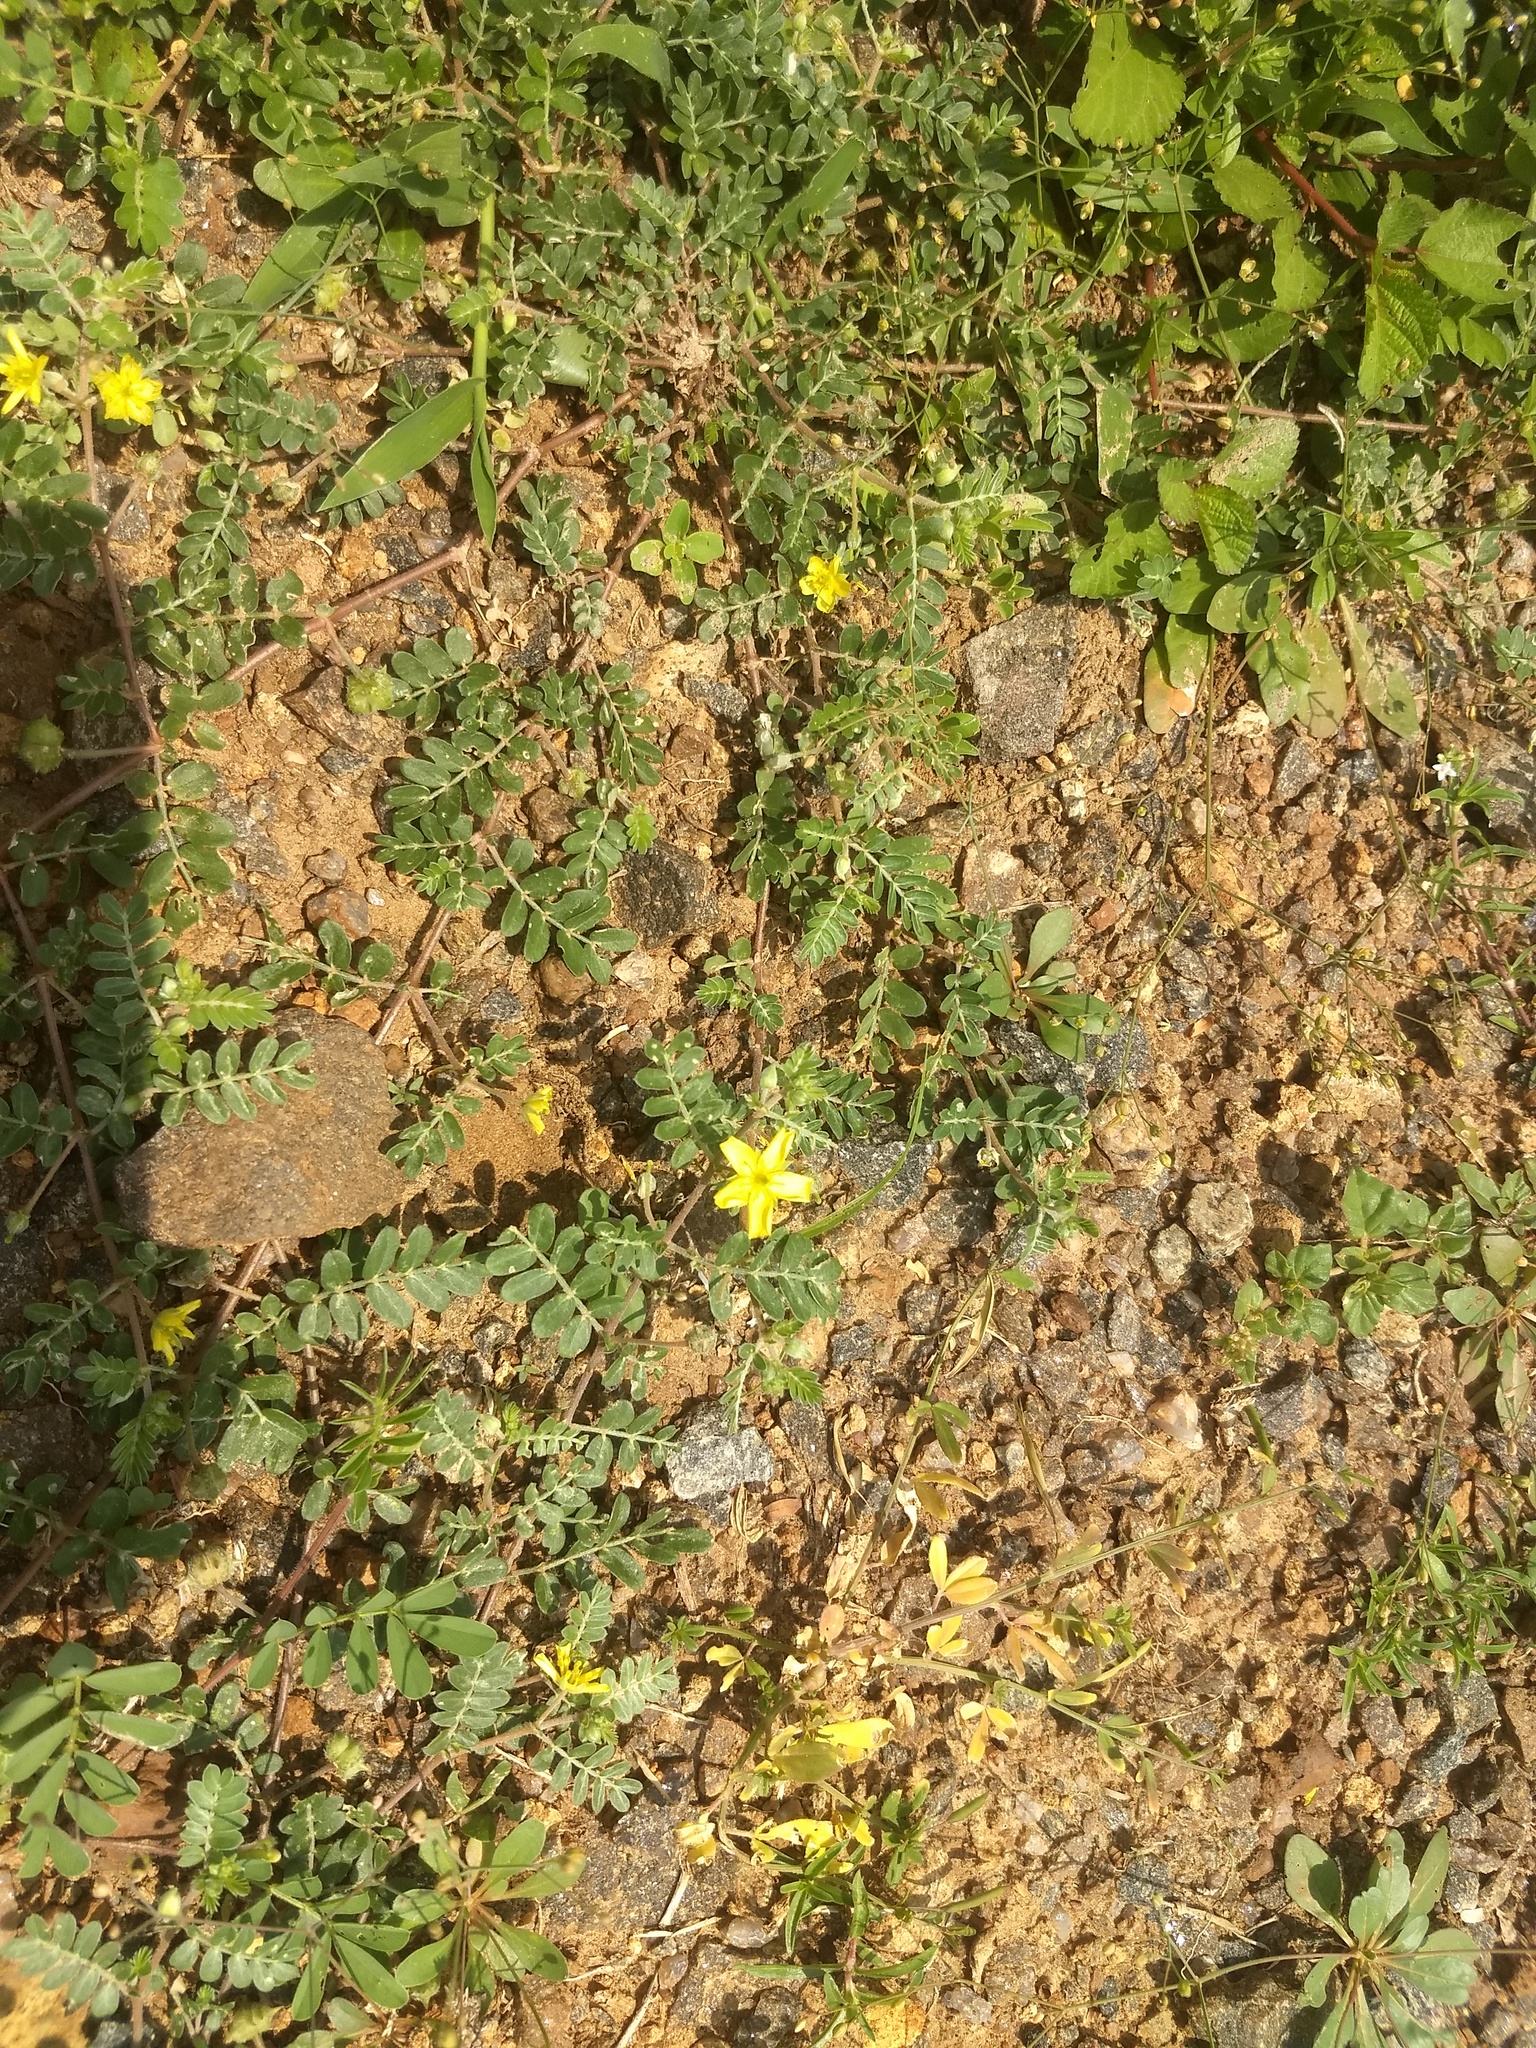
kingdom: Plantae
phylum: Tracheophyta
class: Magnoliopsida
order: Zygophyllales
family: Zygophyllaceae
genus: Tribulus
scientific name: Tribulus terrestris
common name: Puncturevine
